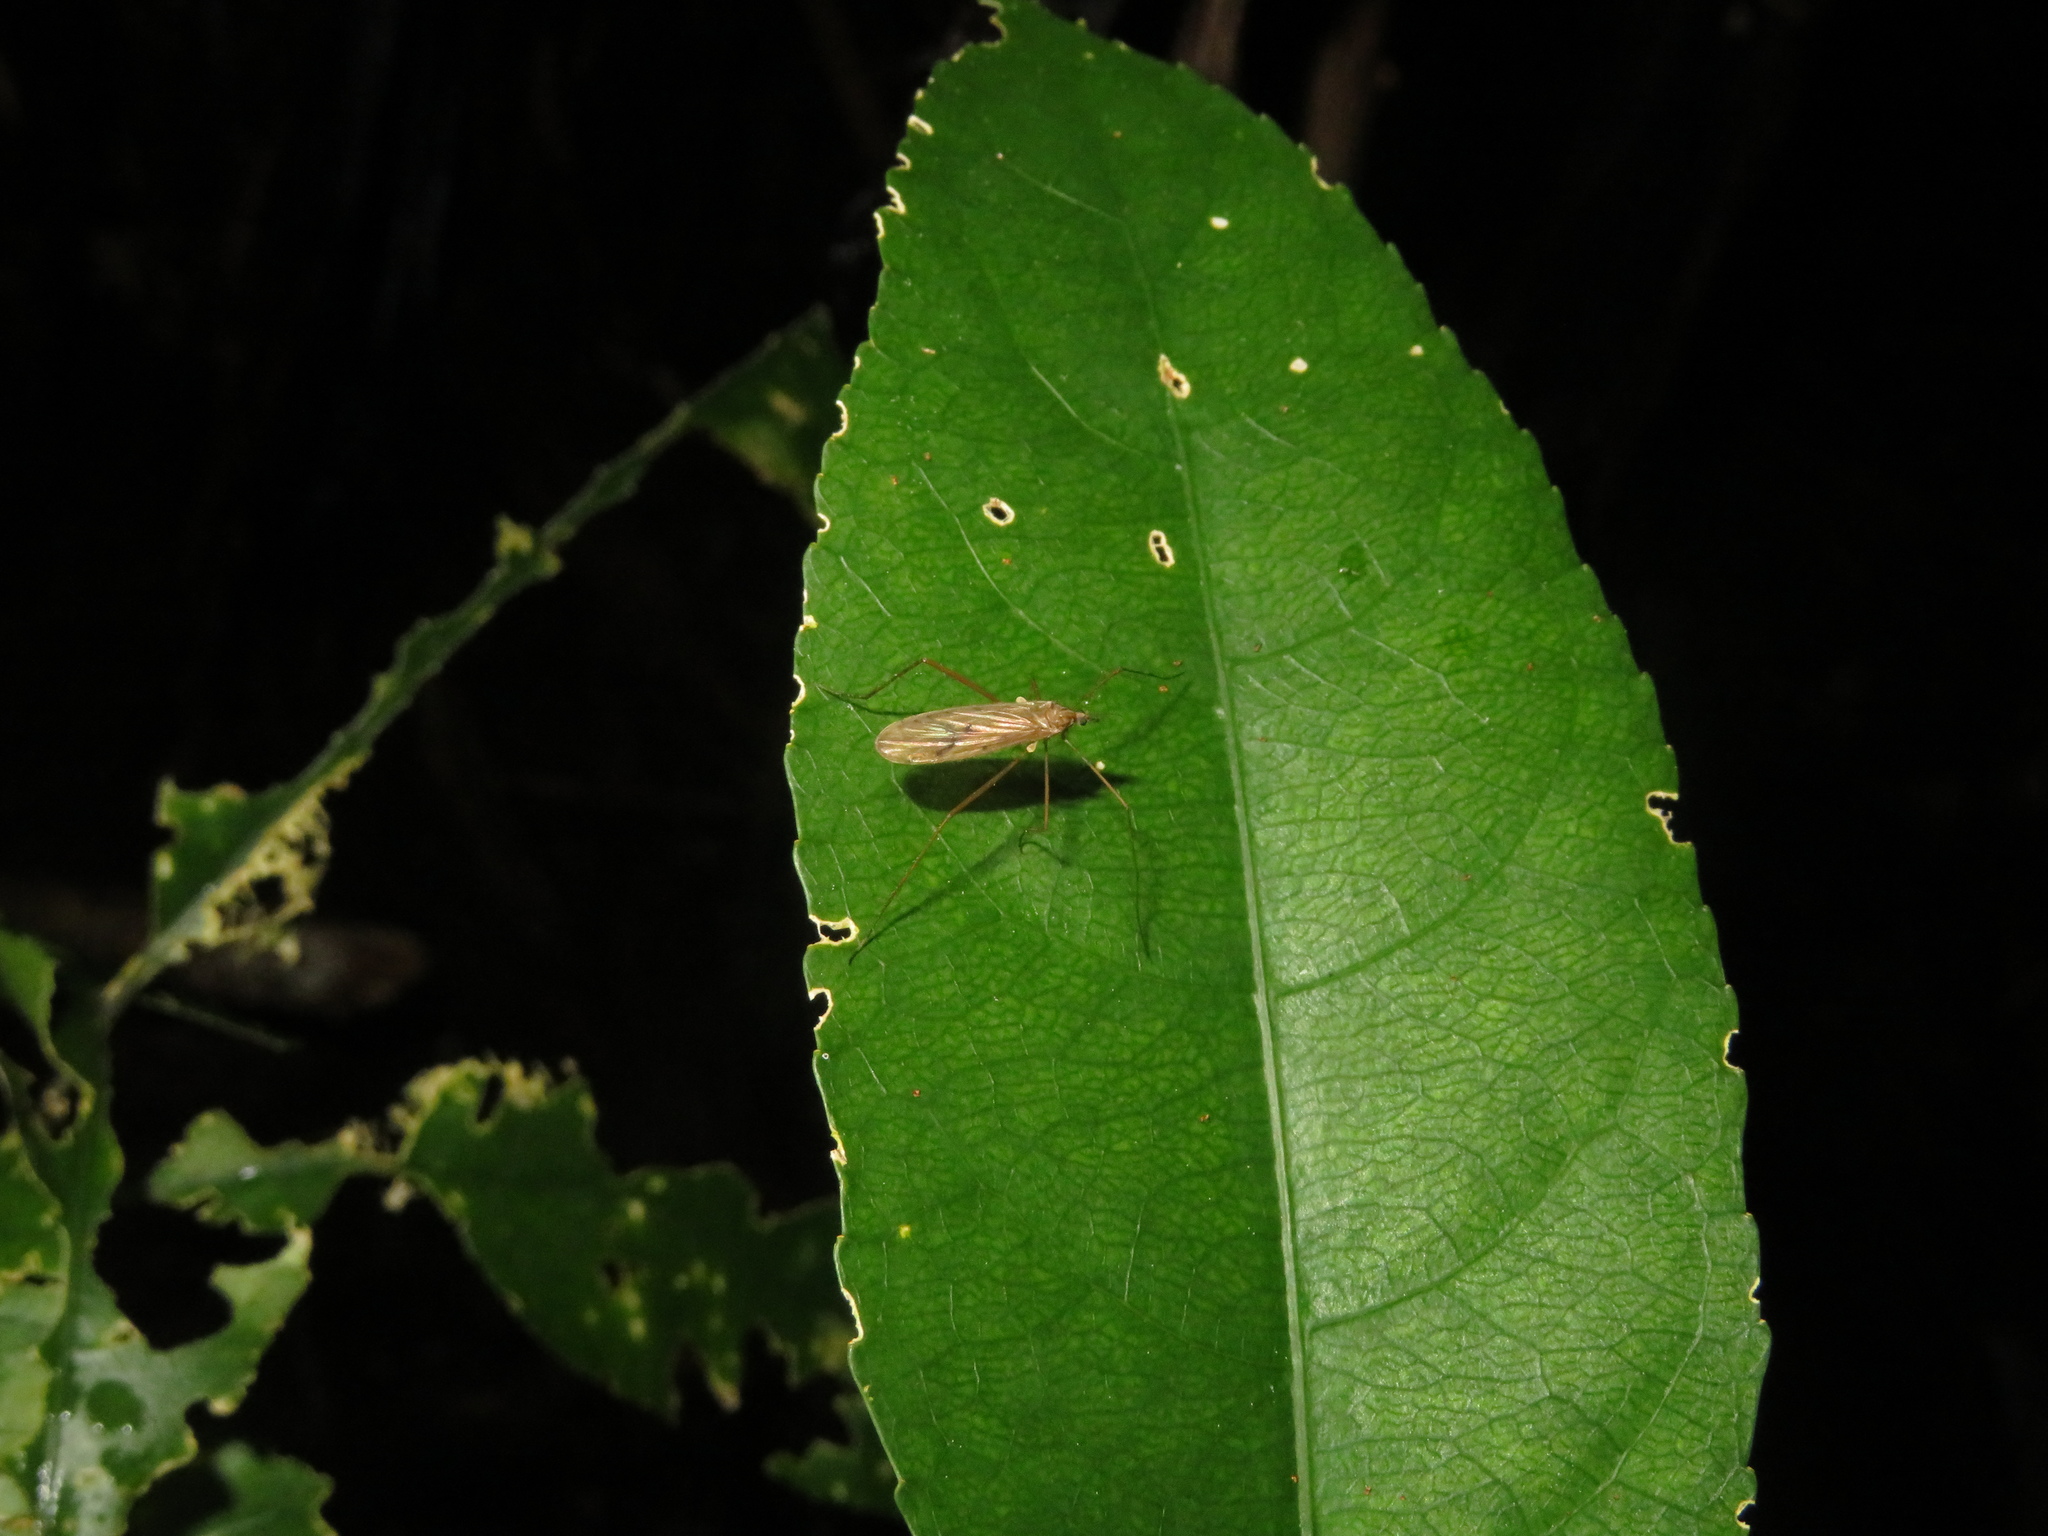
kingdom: Animalia
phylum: Arthropoda
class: Insecta
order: Diptera
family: Limoniidae
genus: Amphineurus
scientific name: Amphineurus insulsus
